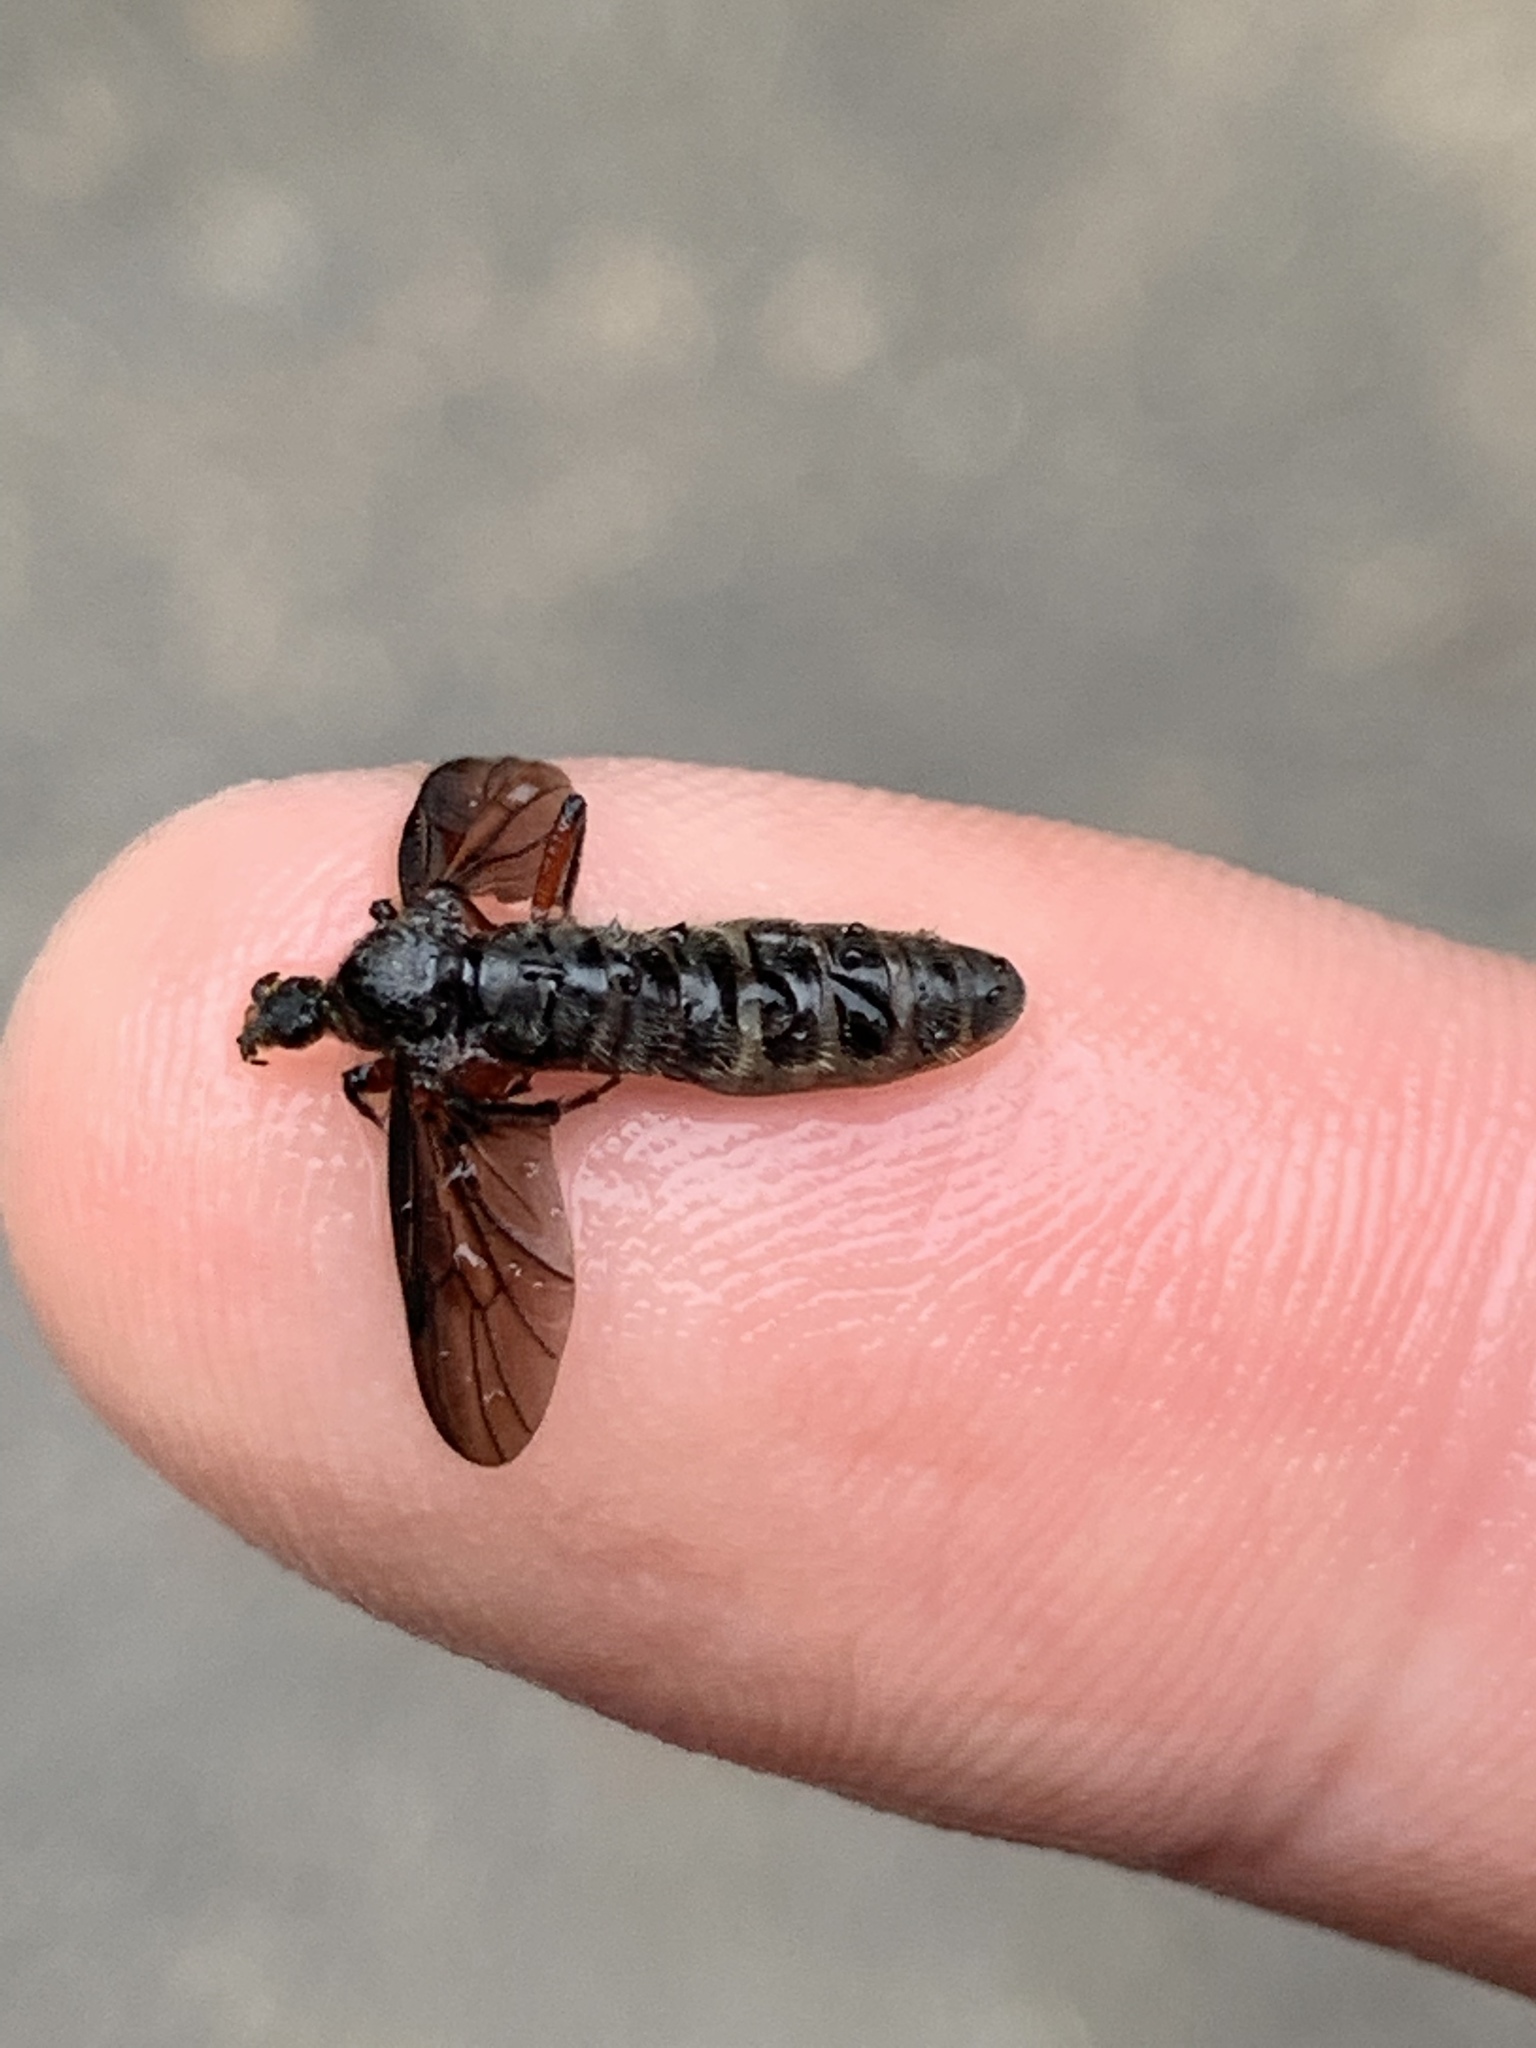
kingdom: Animalia
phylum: Arthropoda
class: Insecta
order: Diptera
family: Bibionidae
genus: Bibio
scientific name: Bibio femoratus
